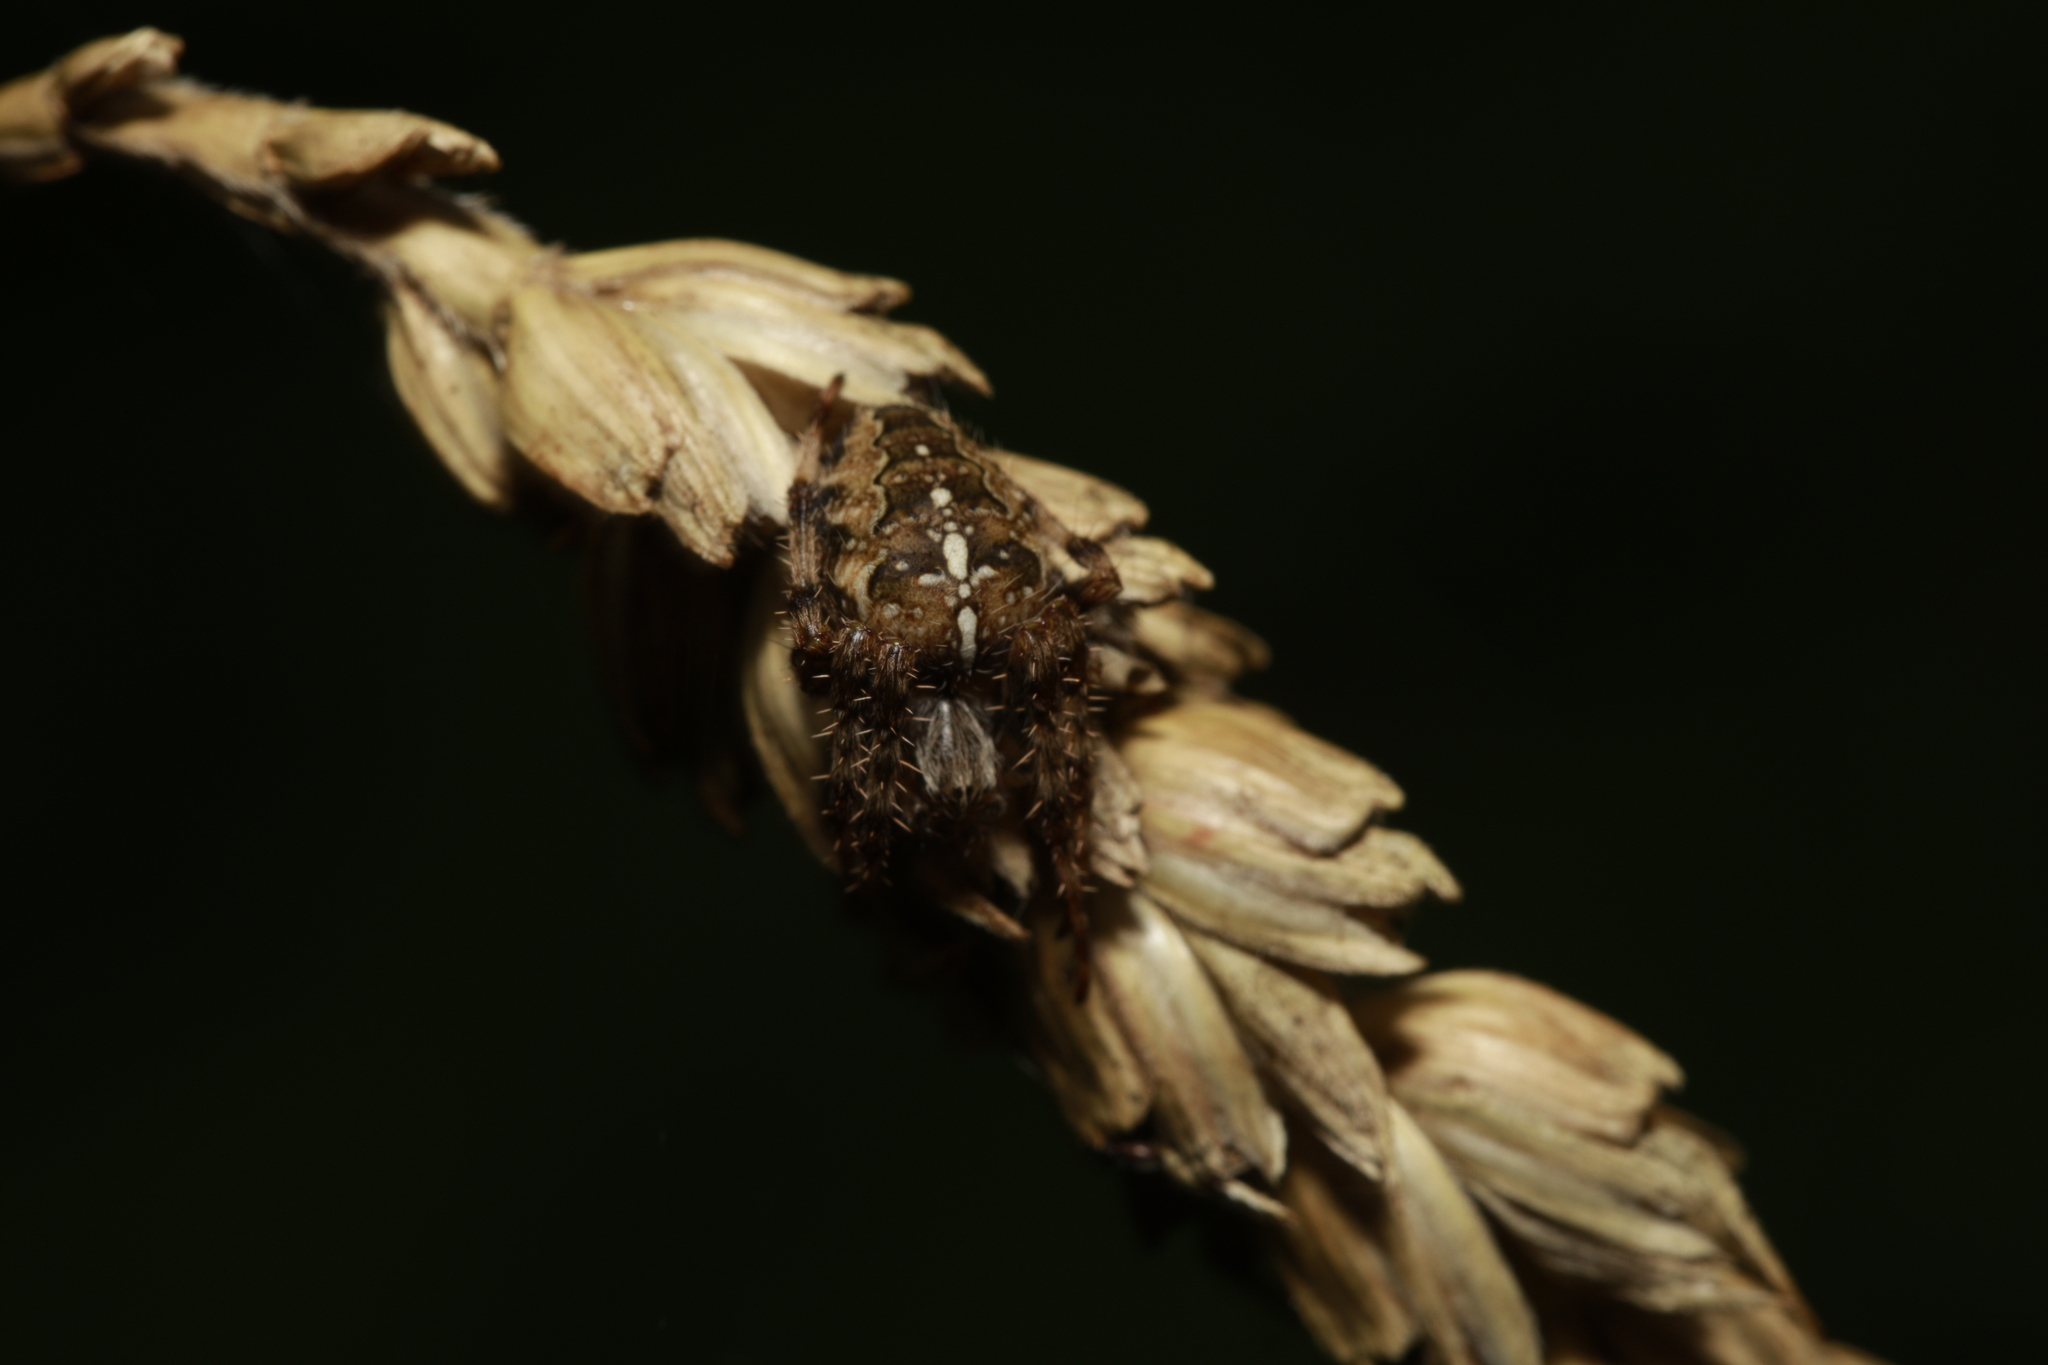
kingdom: Animalia
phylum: Arthropoda
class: Arachnida
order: Araneae
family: Araneidae
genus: Araneus
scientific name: Araneus diadematus
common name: Cross orbweaver
